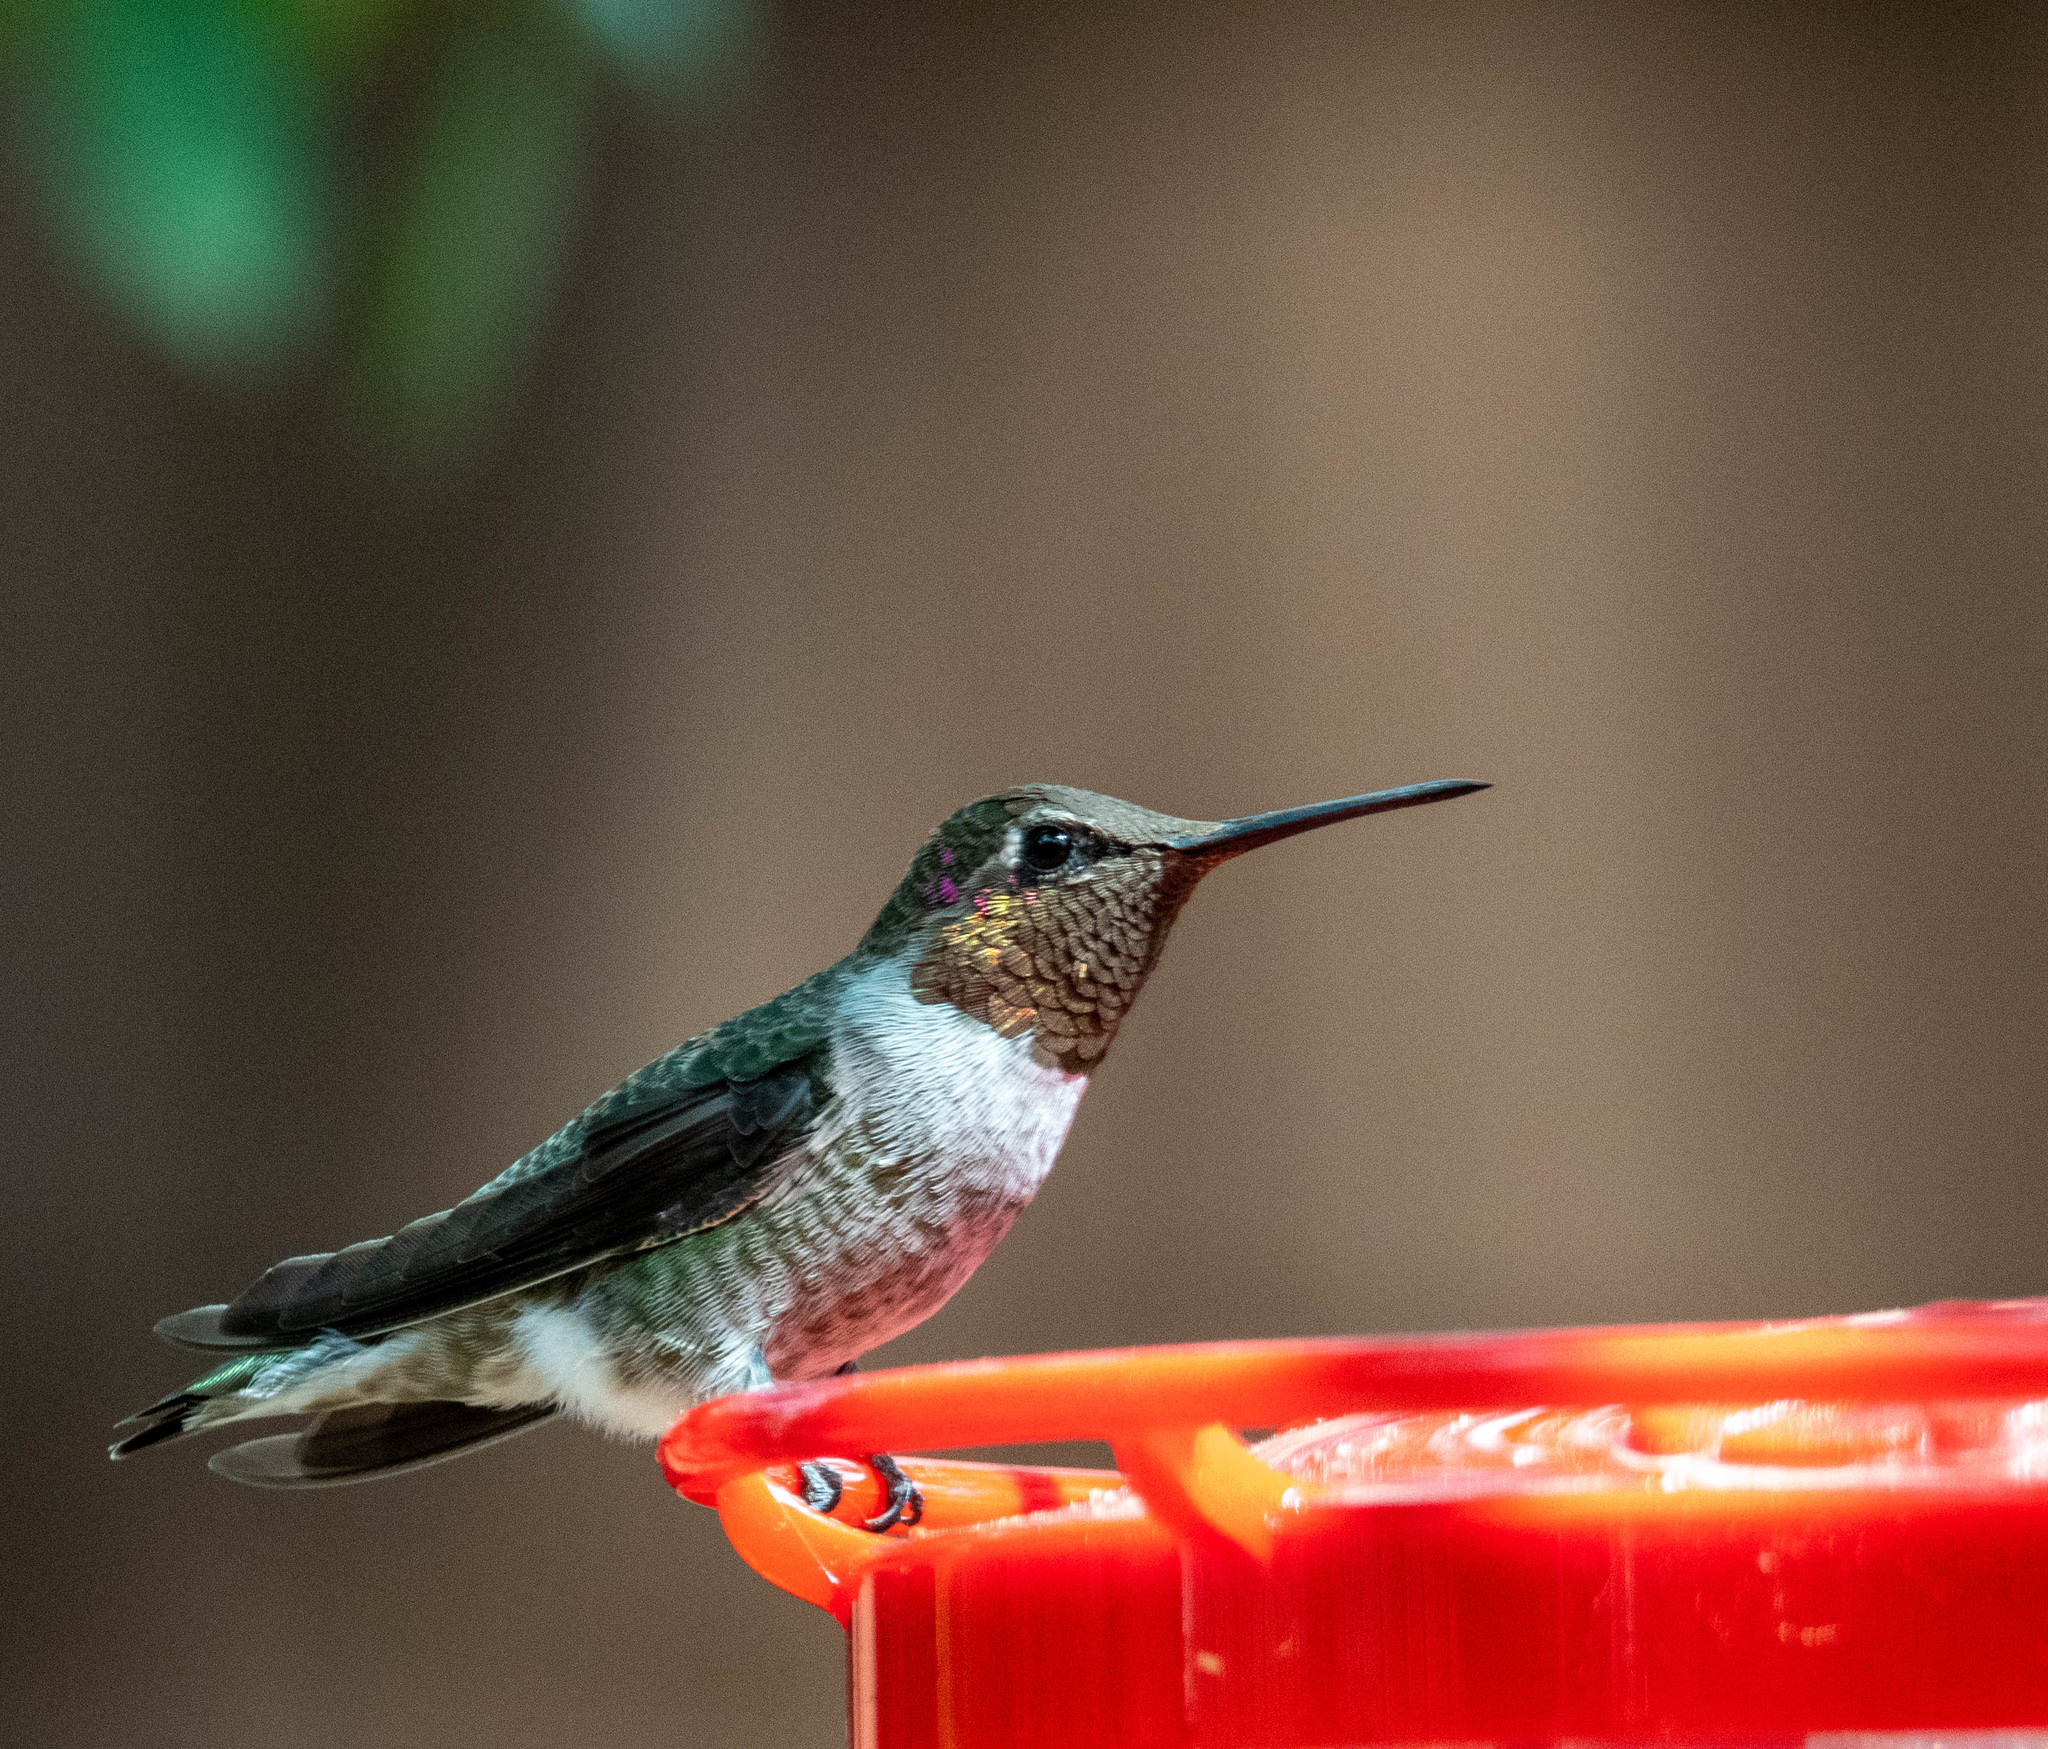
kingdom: Animalia
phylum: Chordata
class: Aves
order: Apodiformes
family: Trochilidae
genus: Calypte
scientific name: Calypte anna
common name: Anna's hummingbird
